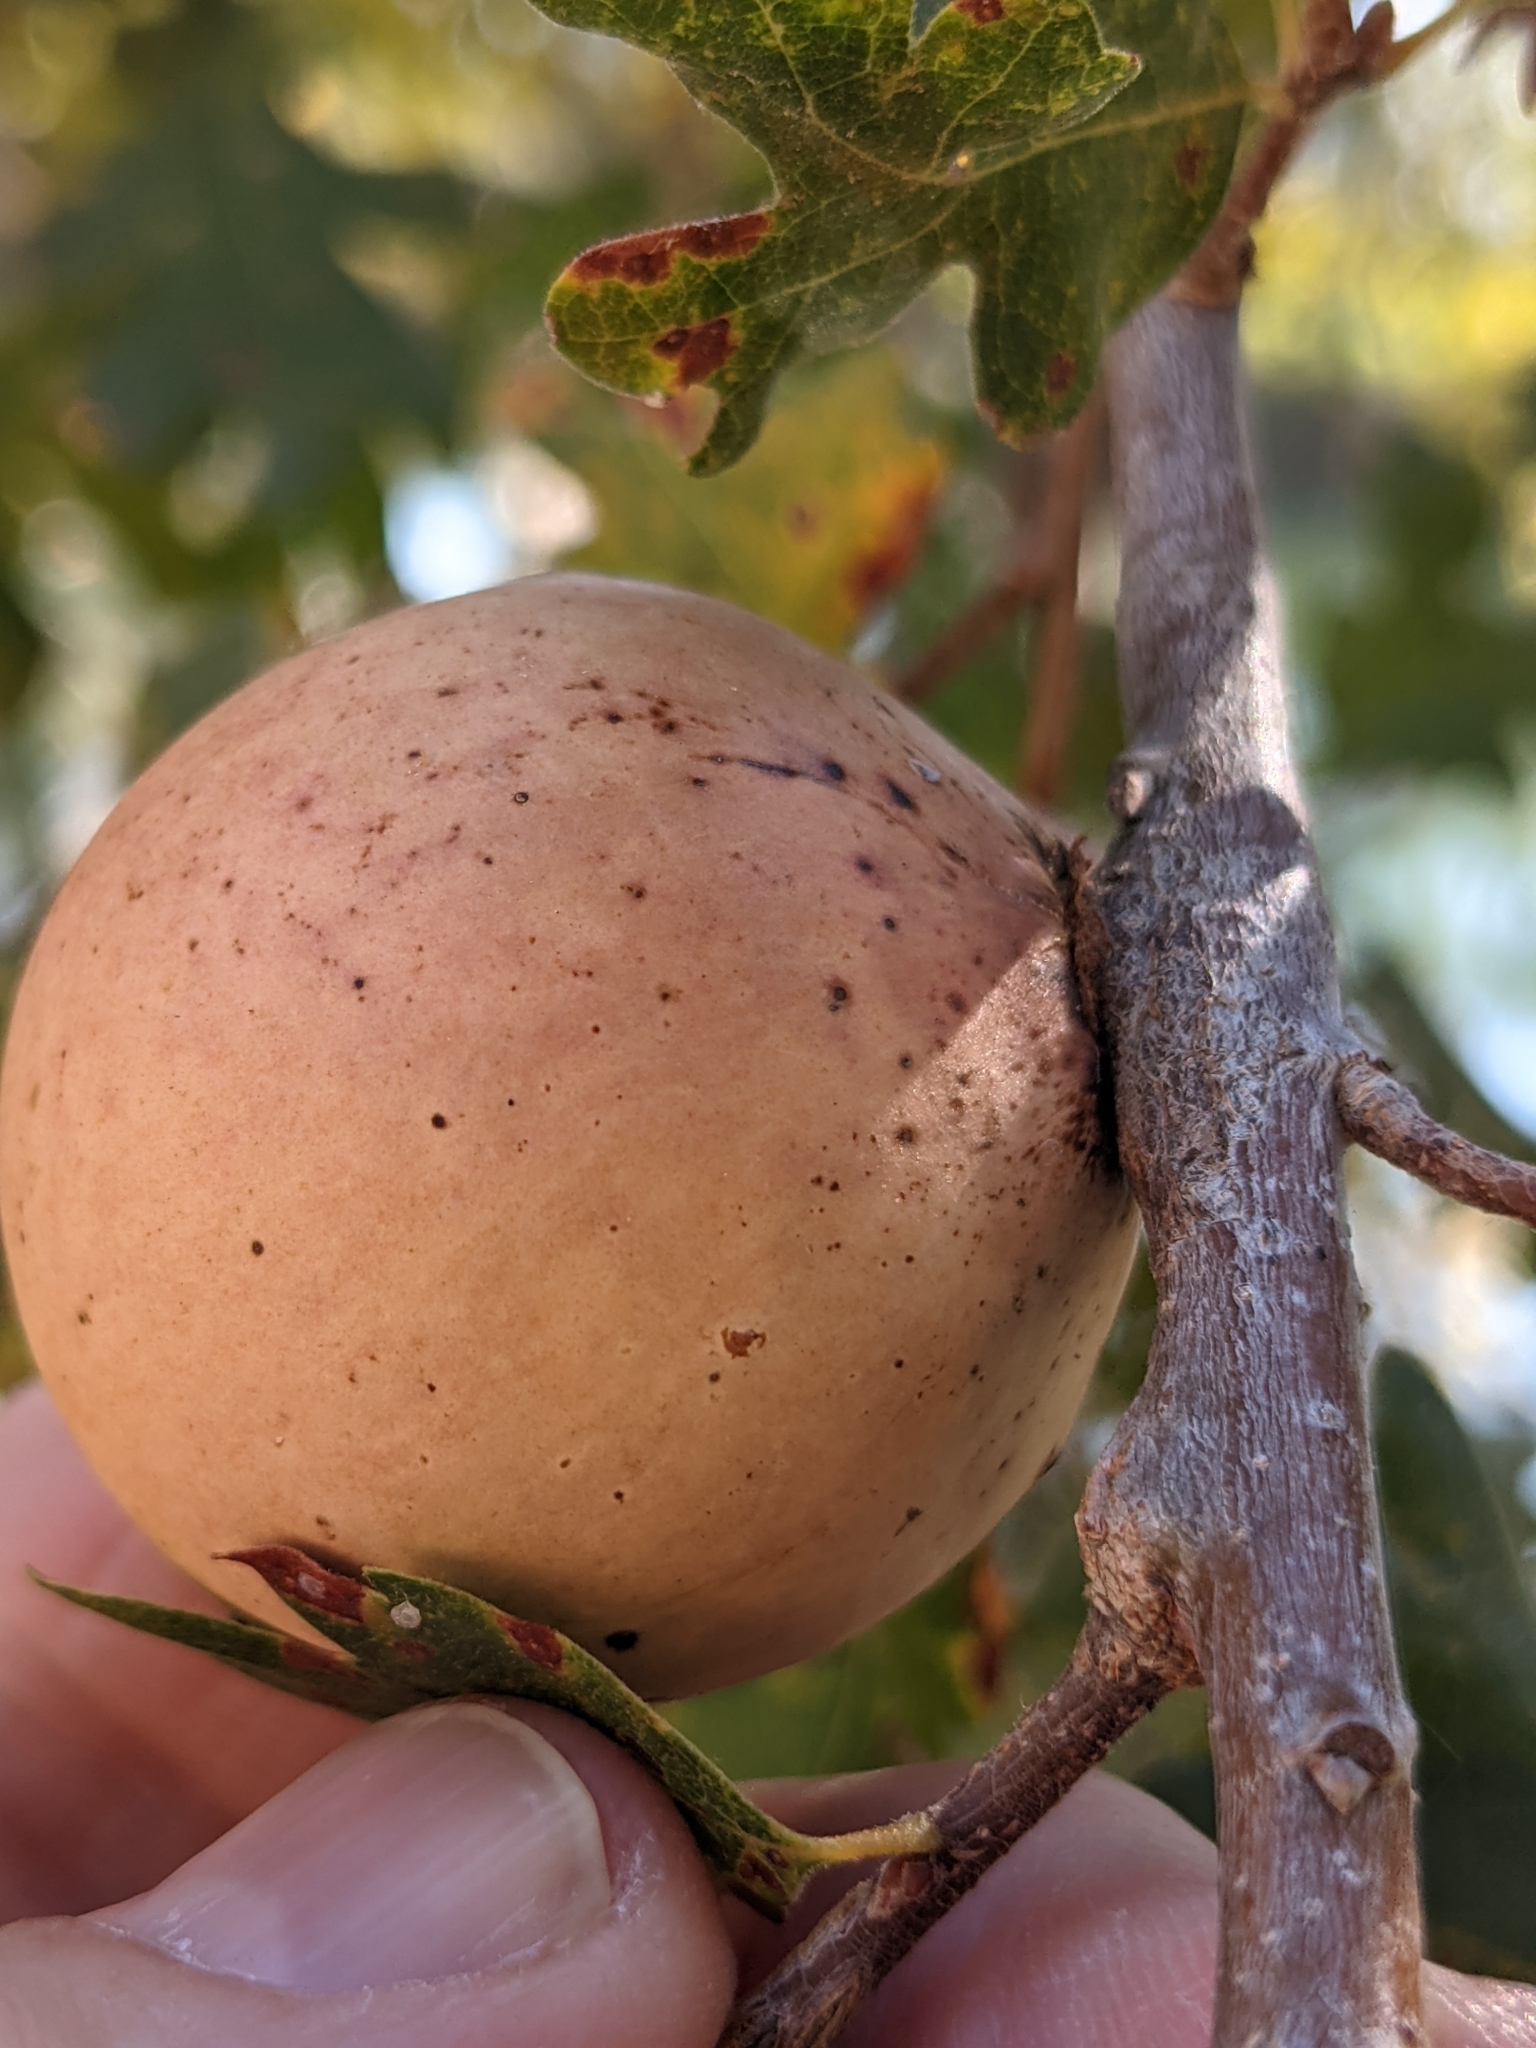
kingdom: Animalia
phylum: Arthropoda
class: Insecta
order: Hymenoptera
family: Cynipidae
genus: Andricus
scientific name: Andricus quercuscalifornicus
